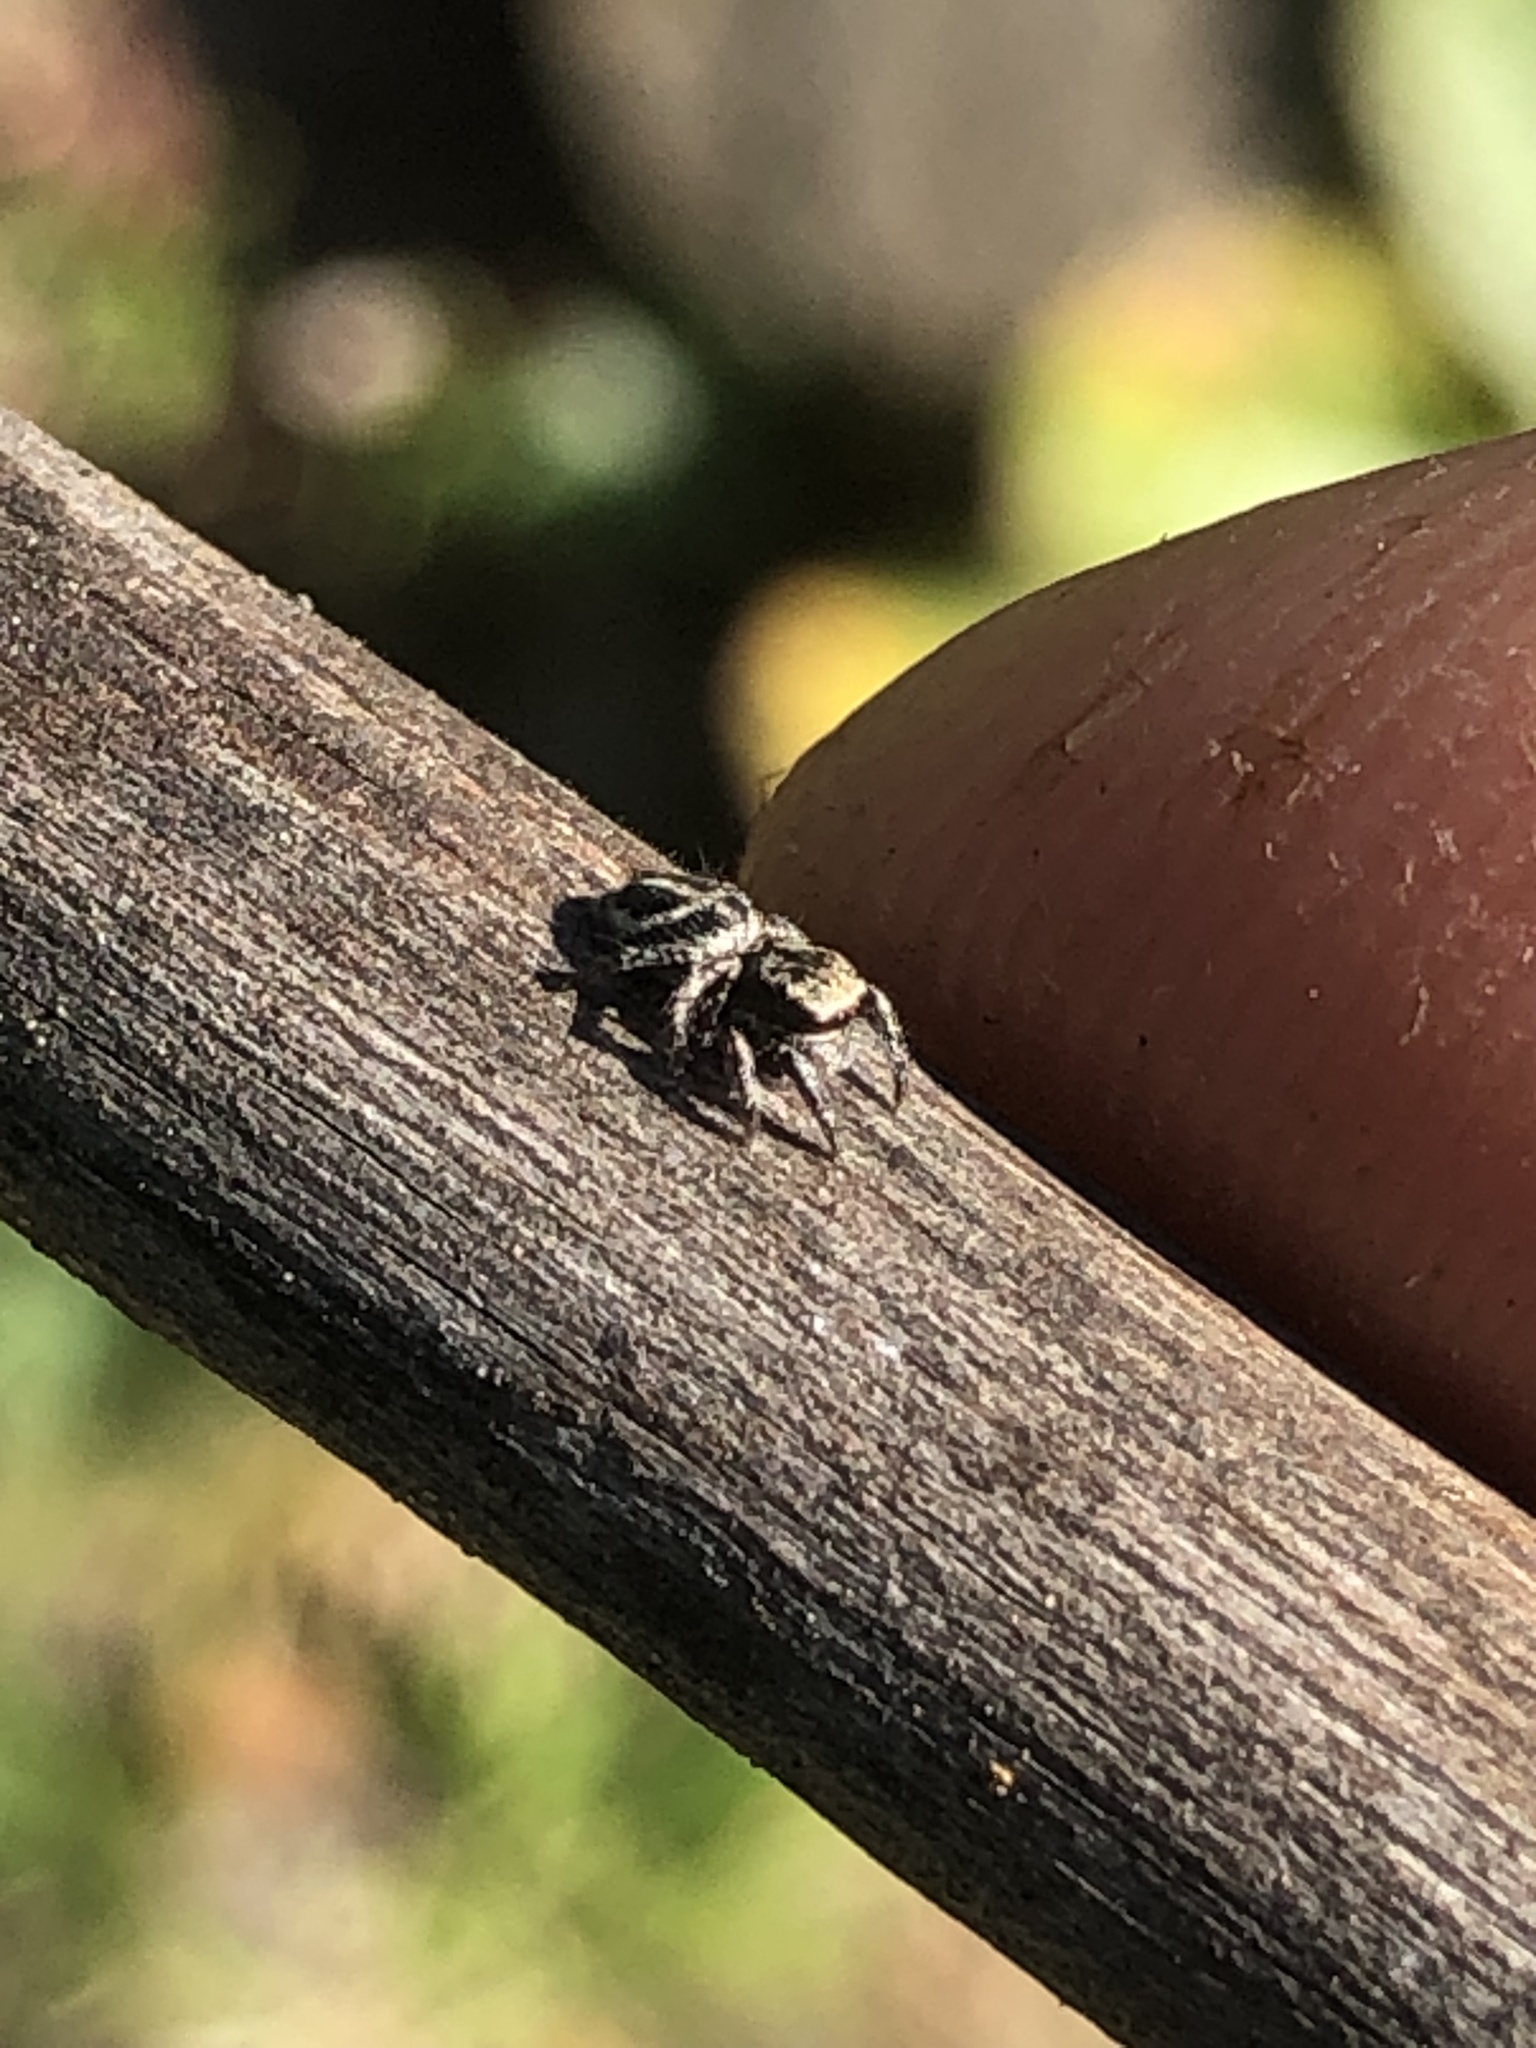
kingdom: Animalia
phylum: Arthropoda
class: Arachnida
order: Araneae
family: Salticidae
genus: Habronattus
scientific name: Habronattus klauseri
